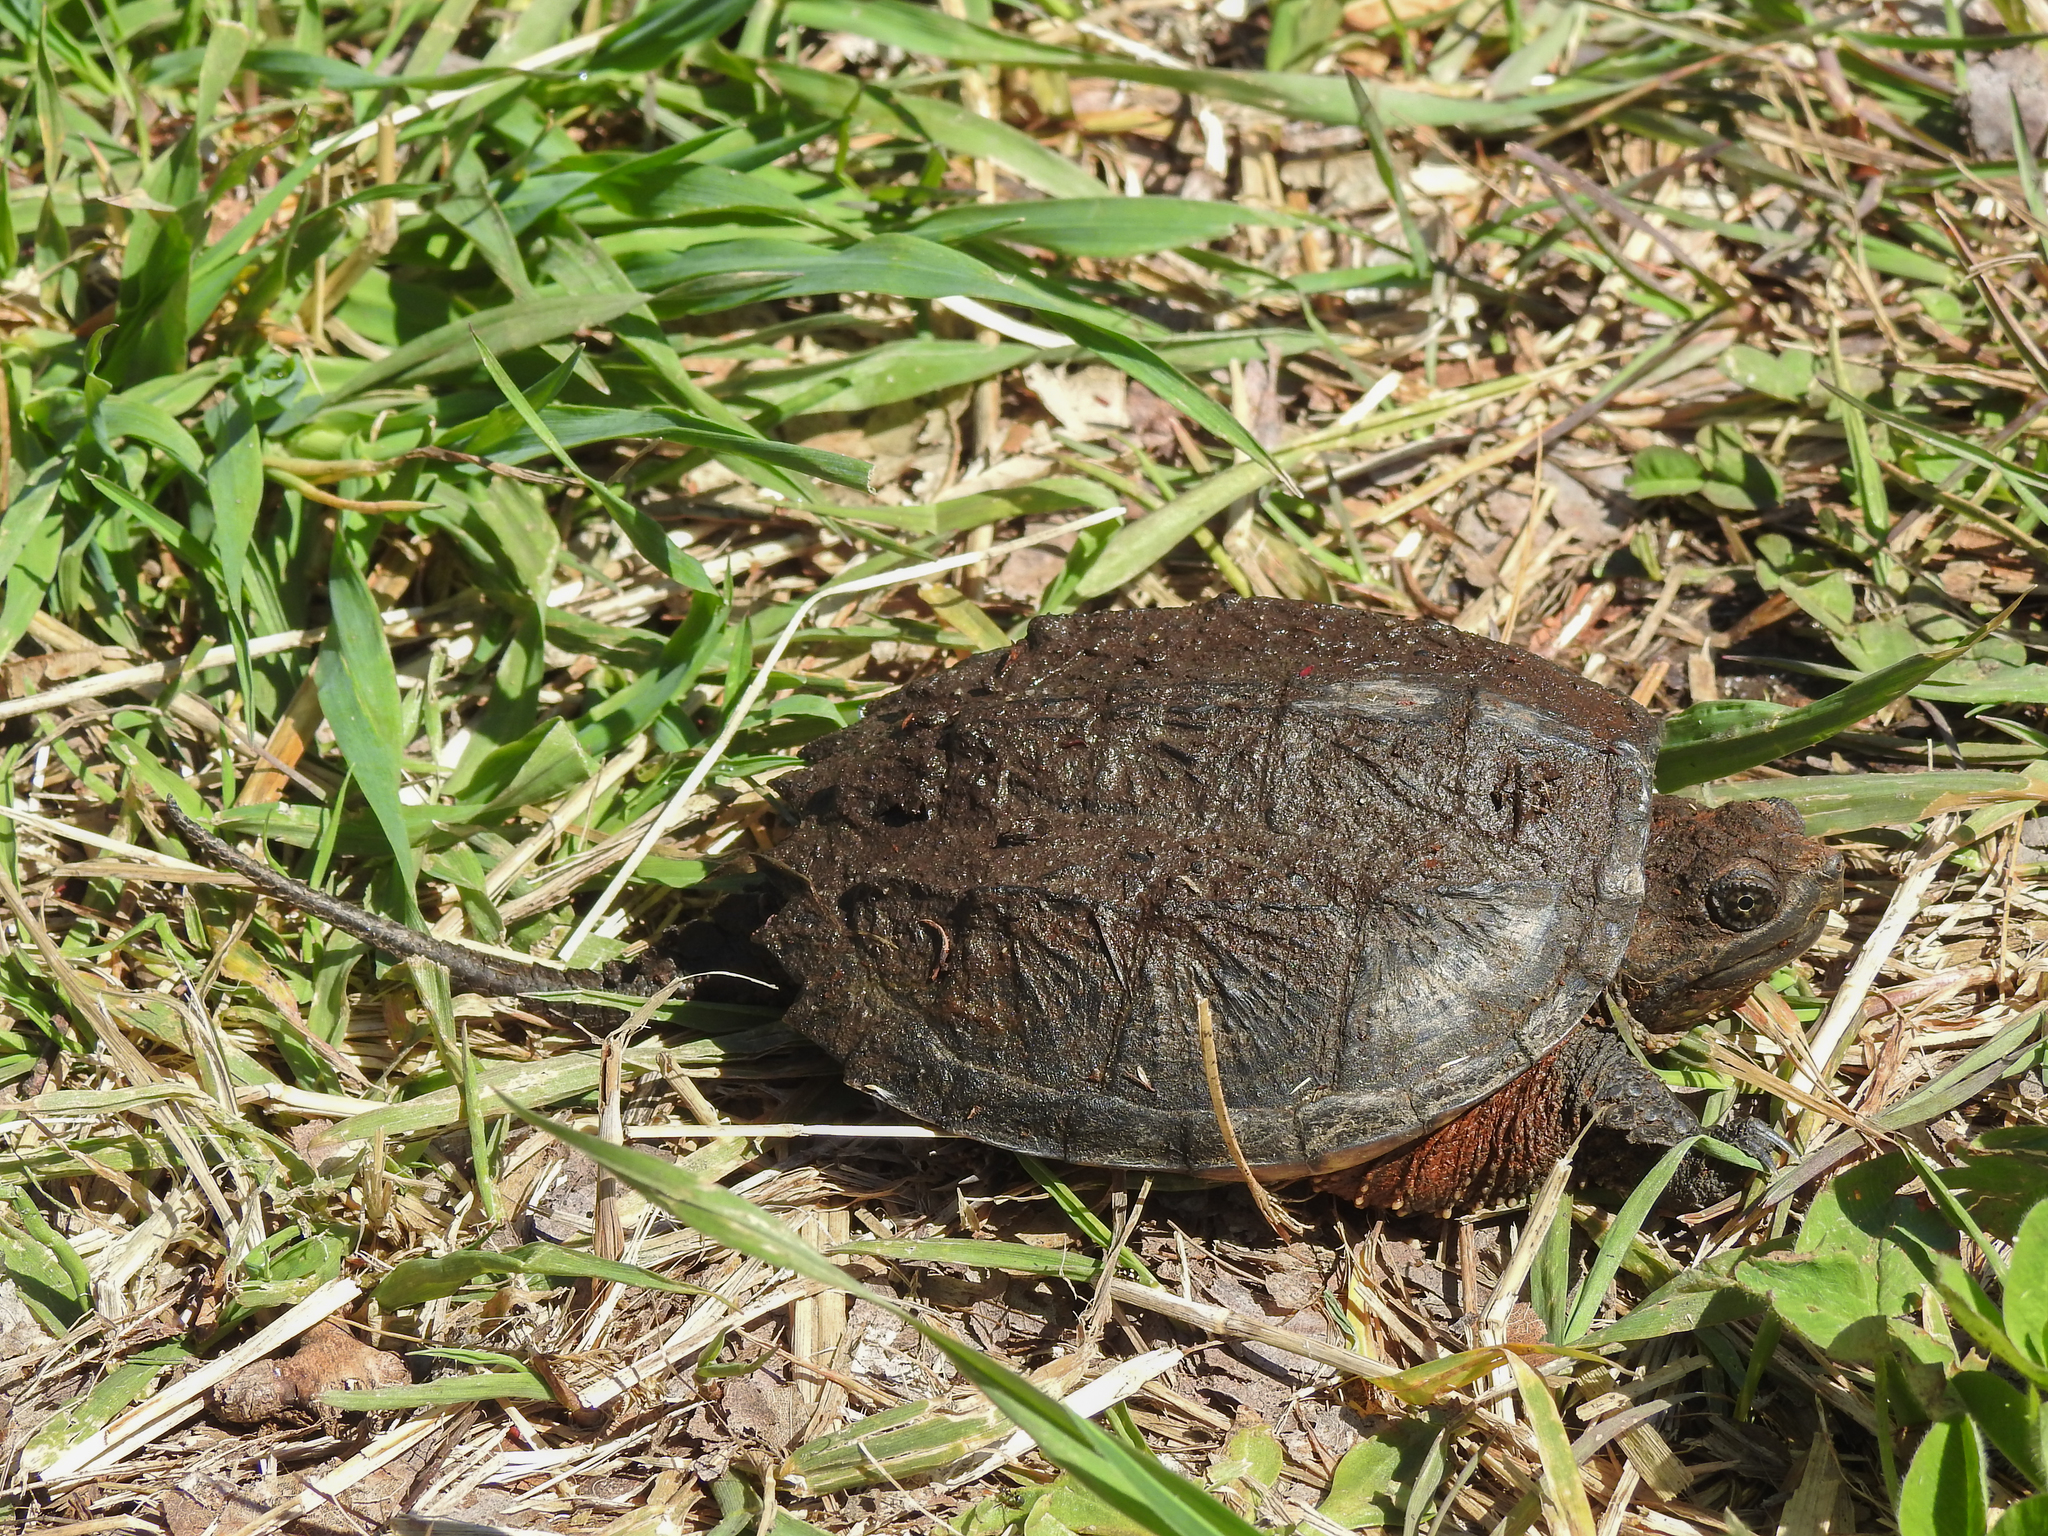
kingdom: Animalia
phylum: Chordata
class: Testudines
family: Chelydridae
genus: Chelydra
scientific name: Chelydra serpentina
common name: Common snapping turtle
